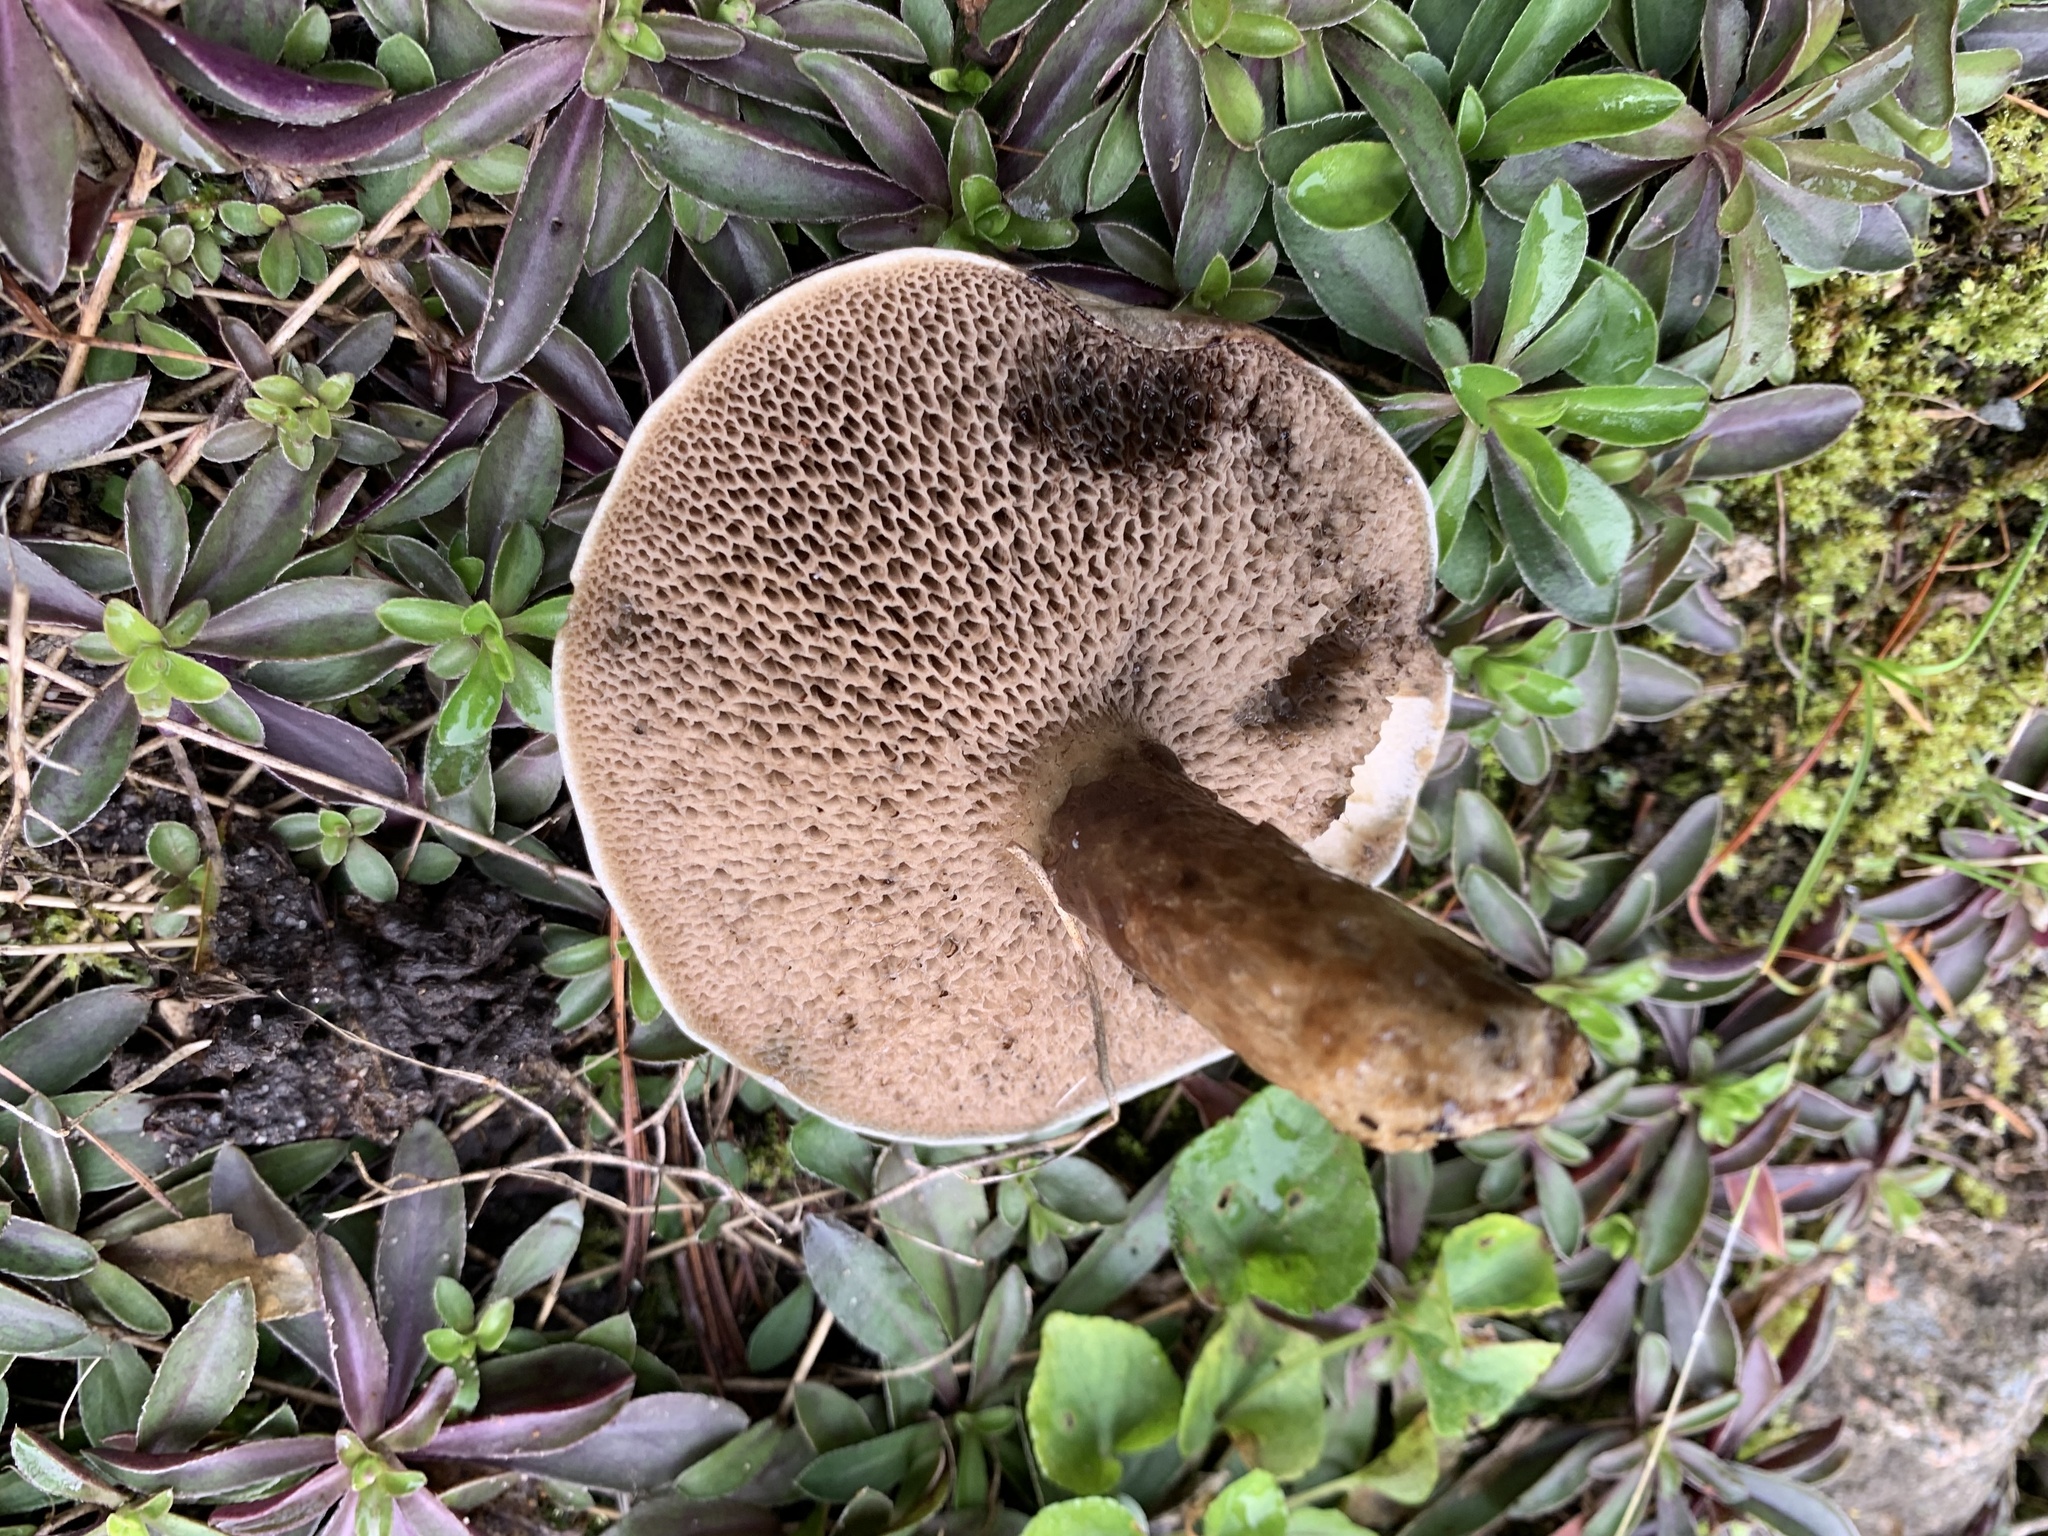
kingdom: Fungi
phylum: Basidiomycota
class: Agaricomycetes
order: Boletales
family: Suillaceae
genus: Suillus
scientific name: Suillus bovinus
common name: Bovine bolete
